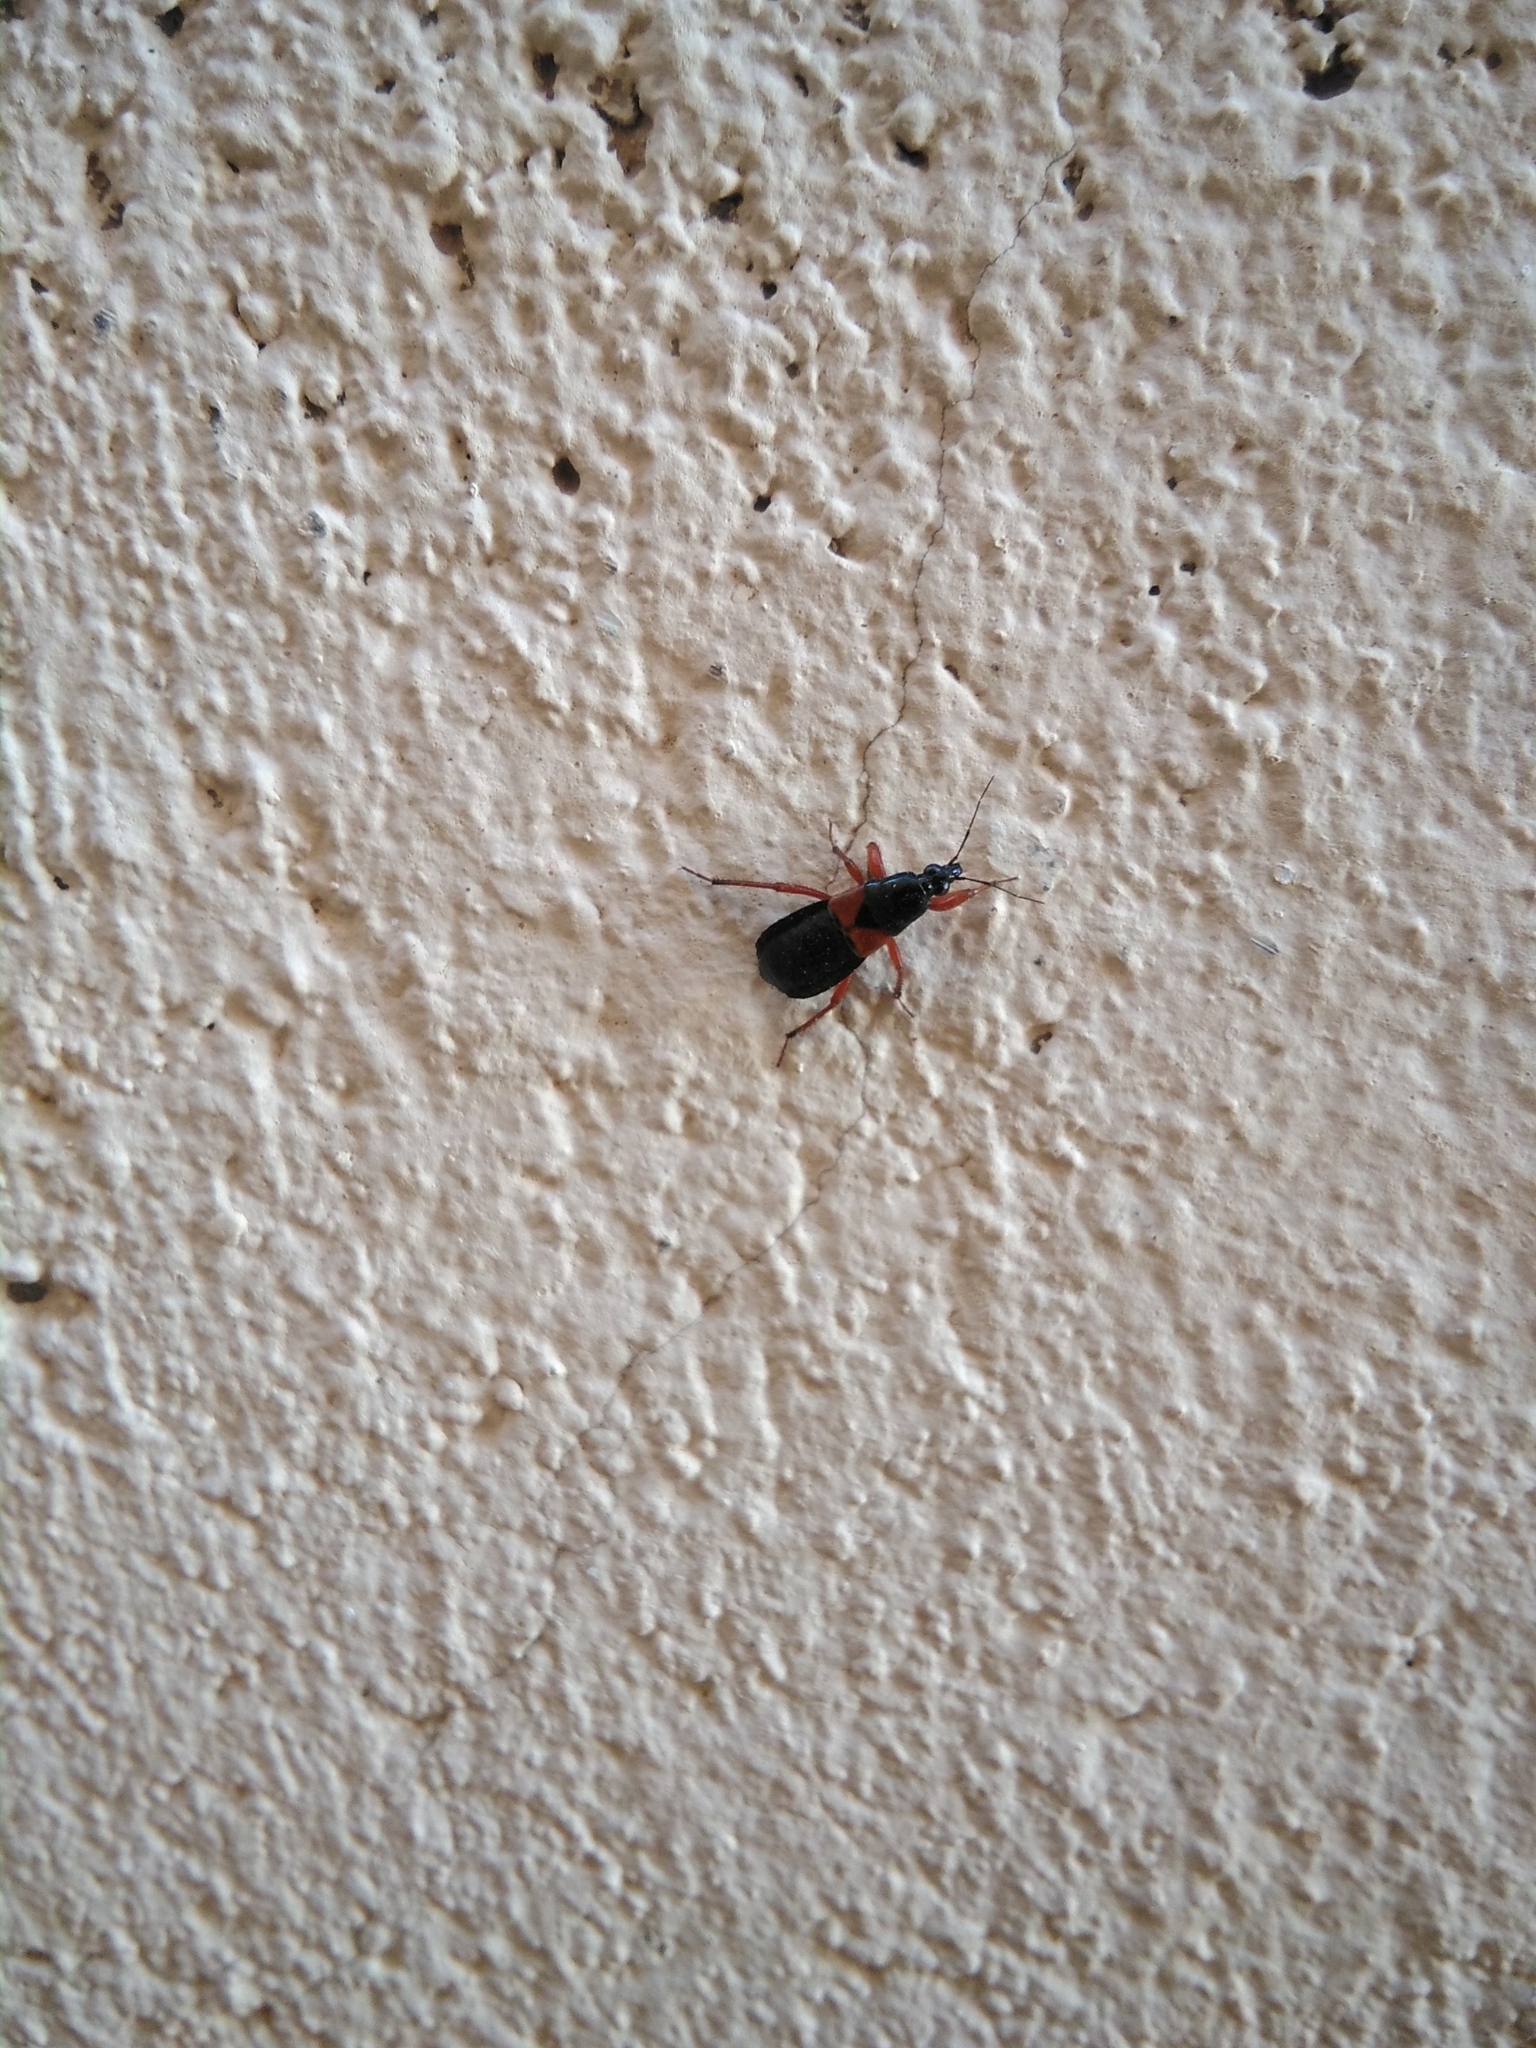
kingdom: Animalia
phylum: Arthropoda
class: Insecta
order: Hemiptera
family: Nabidae
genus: Prostemma
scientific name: Prostemma guttula
